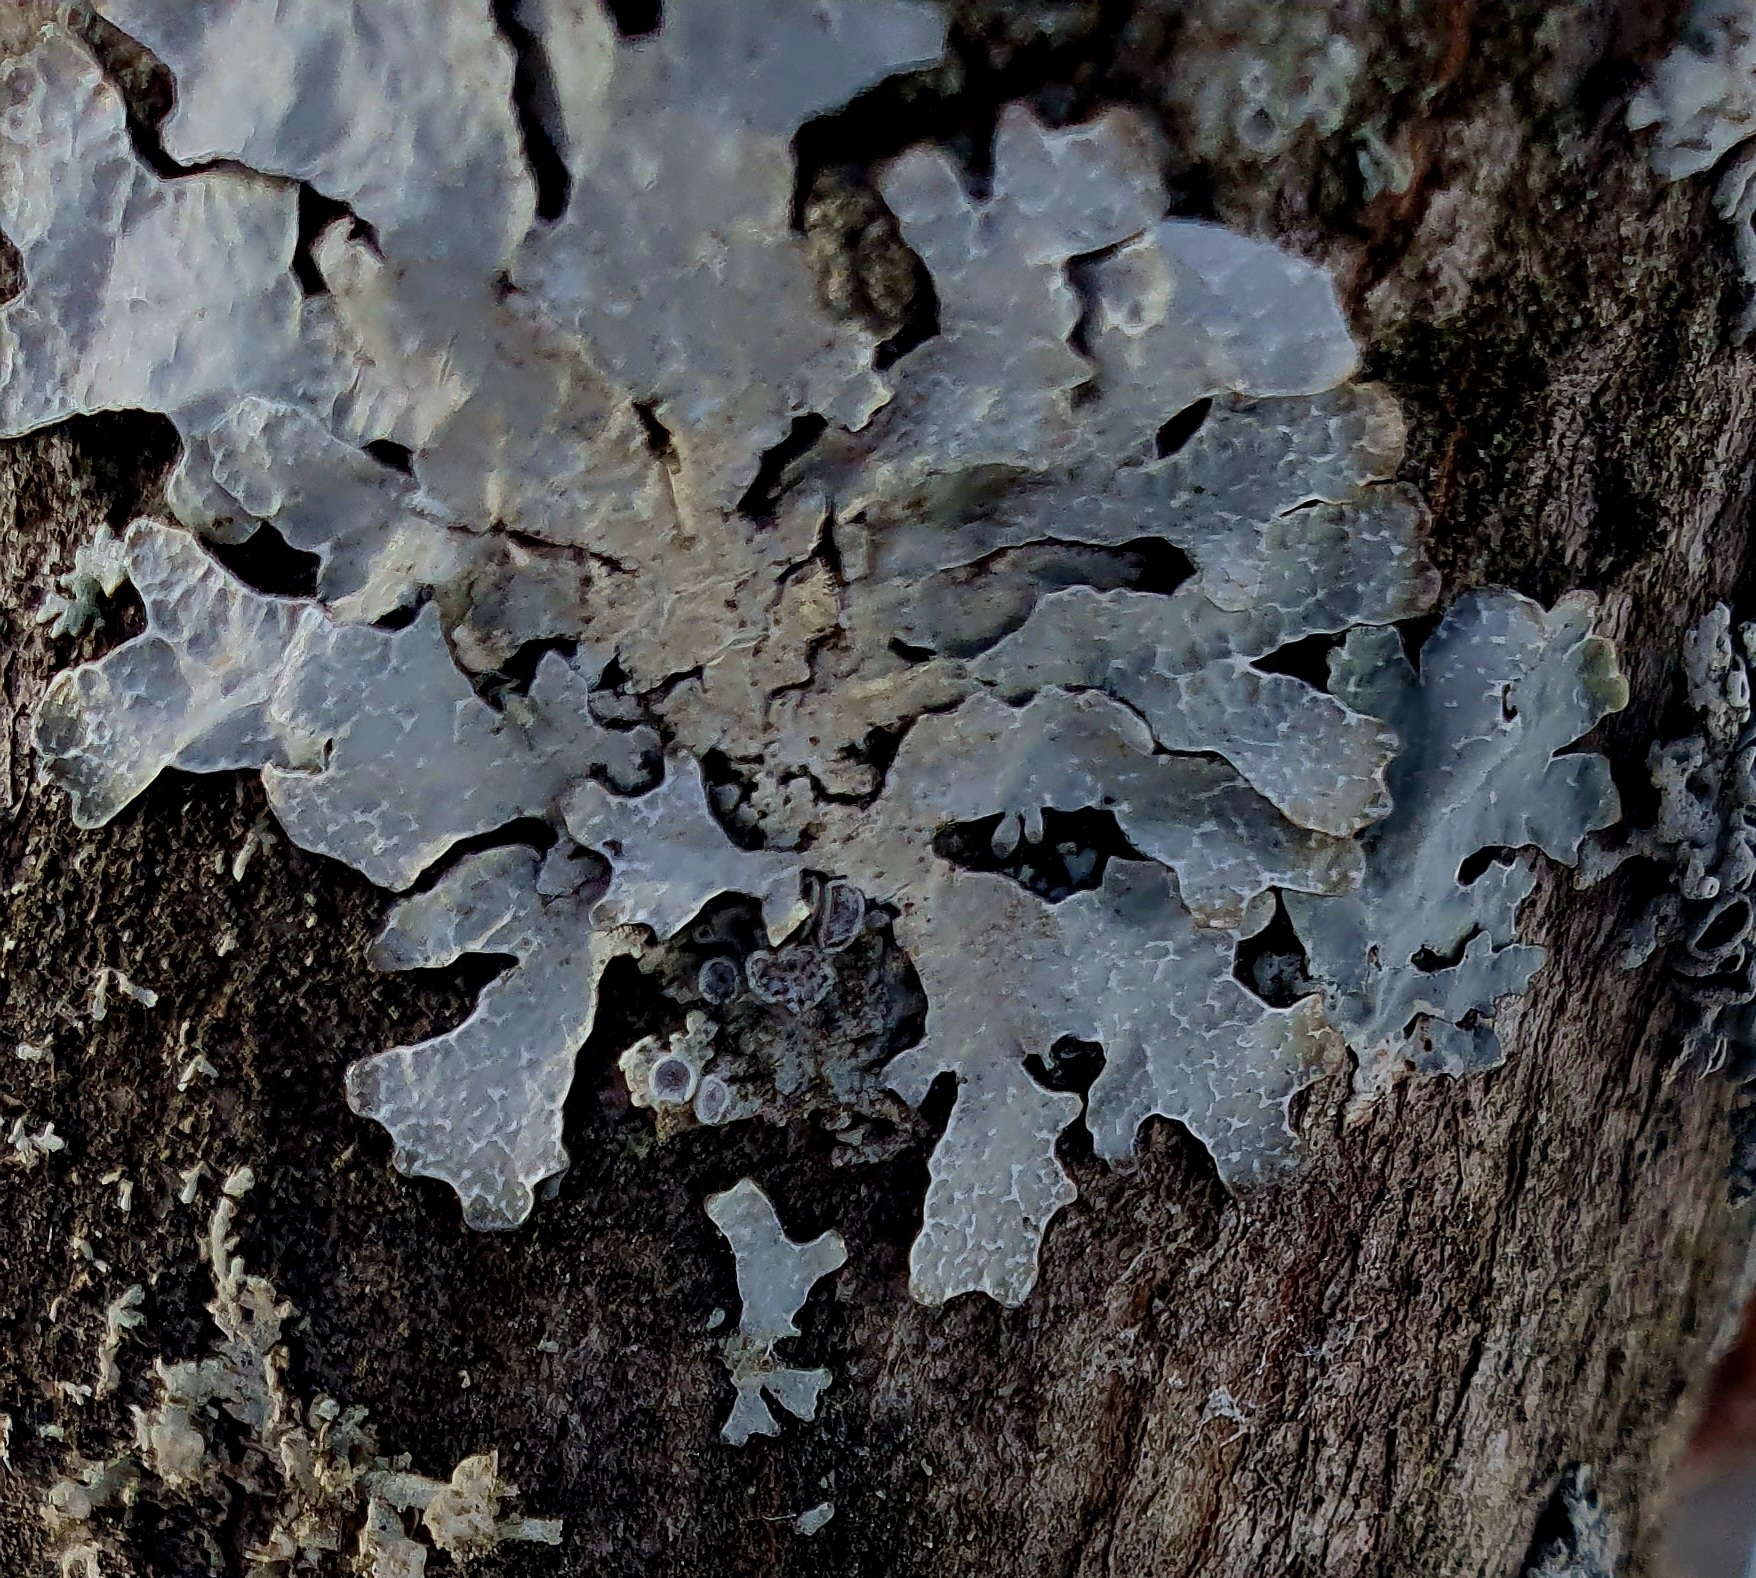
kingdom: Fungi
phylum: Ascomycota
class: Lecanoromycetes
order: Lecanorales
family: Parmeliaceae
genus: Parmelia
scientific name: Parmelia sulcata
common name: Netted shield lichen
